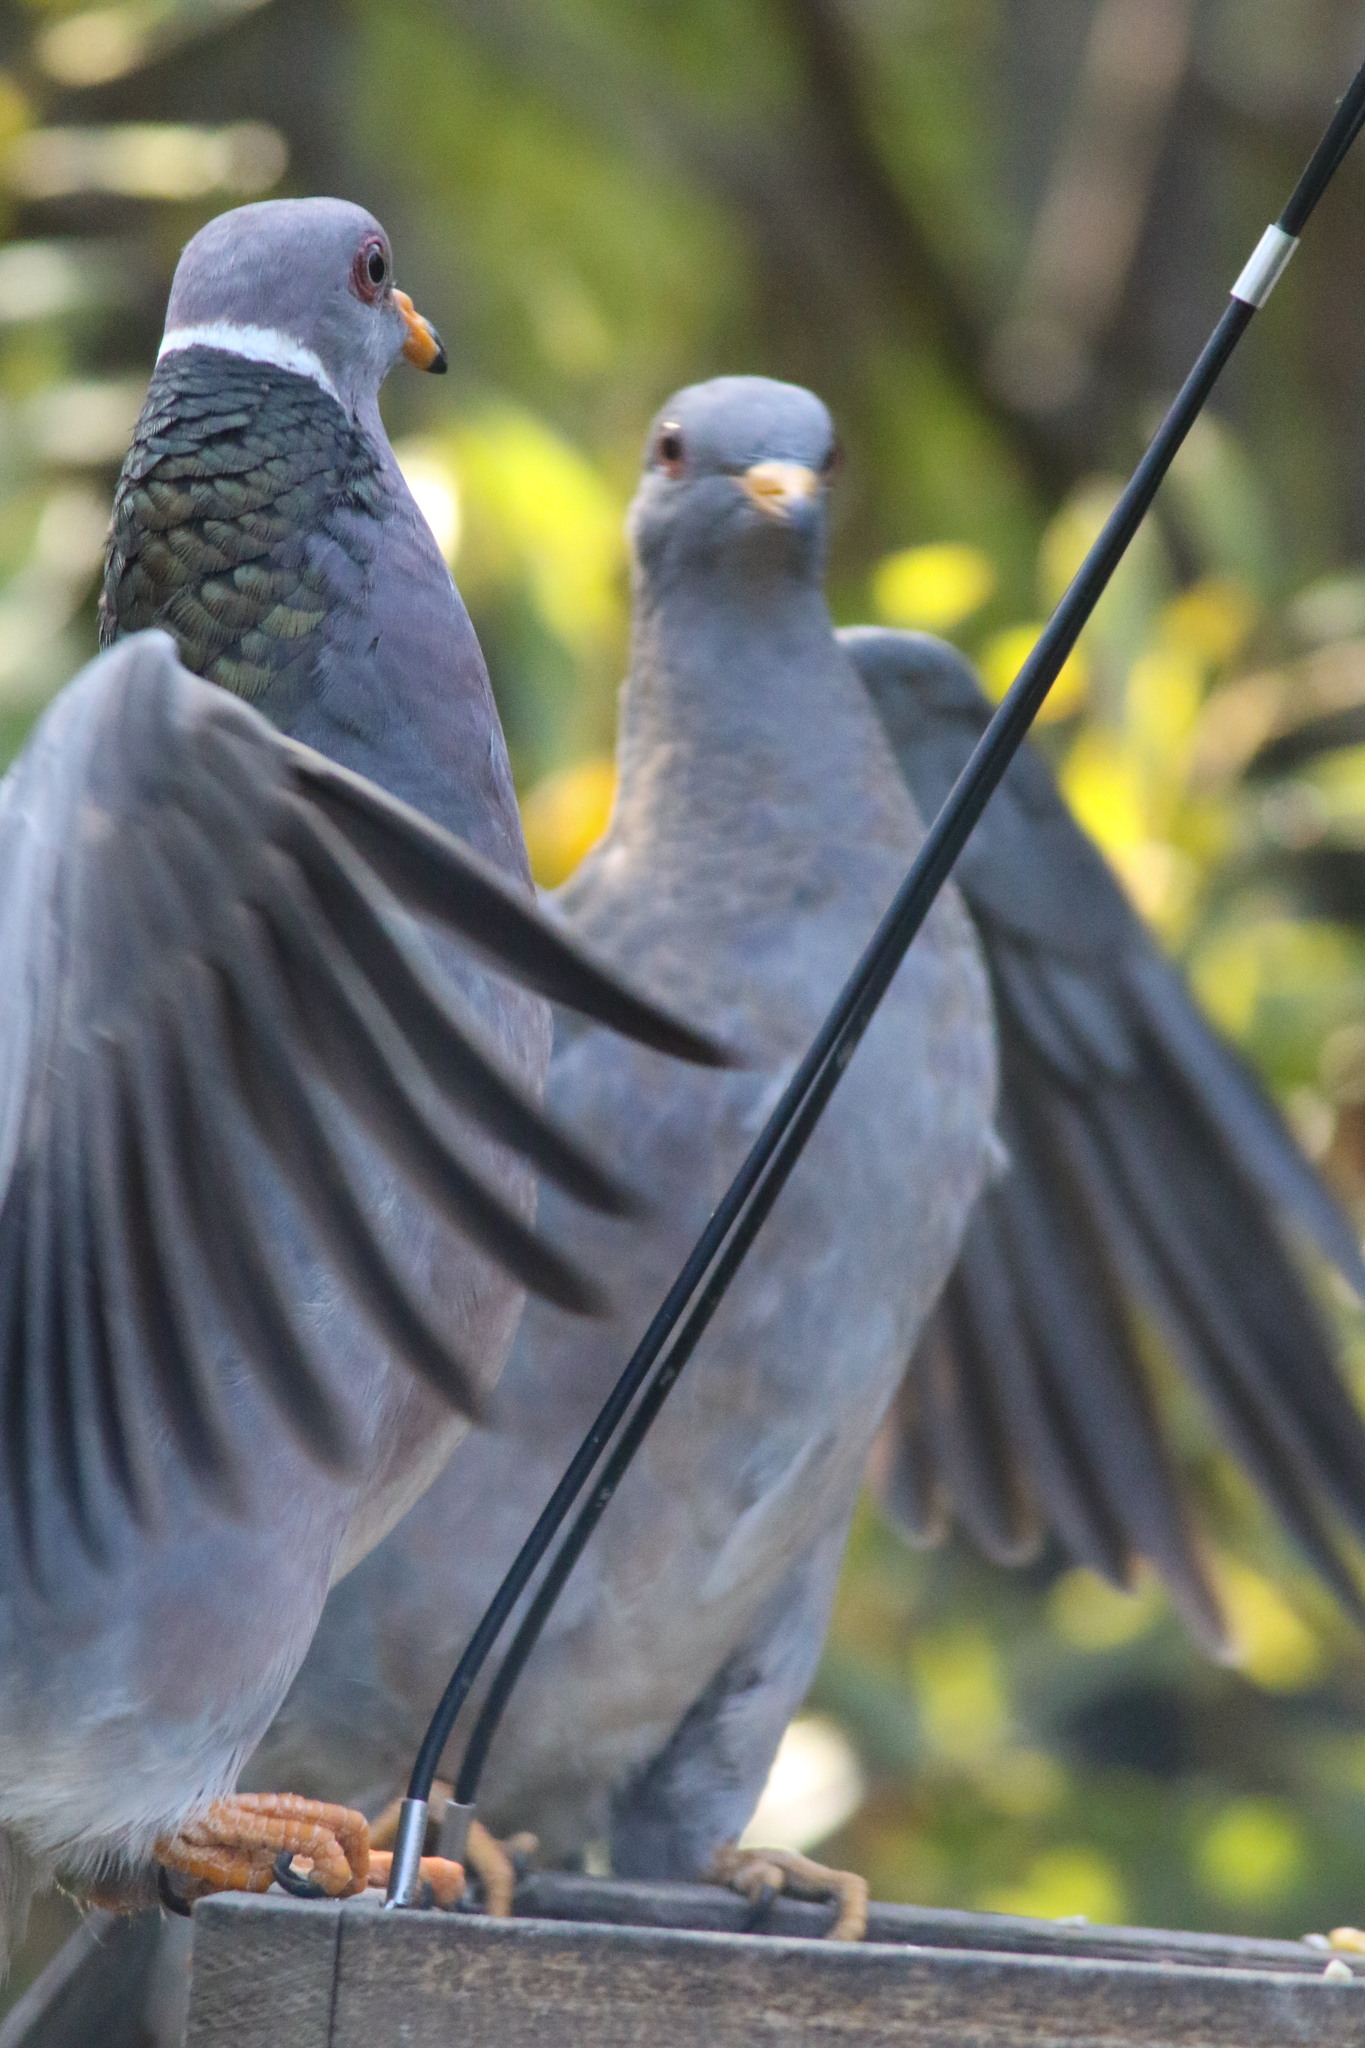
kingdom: Animalia
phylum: Chordata
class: Aves
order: Columbiformes
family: Columbidae
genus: Patagioenas
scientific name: Patagioenas fasciata
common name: Band-tailed pigeon
